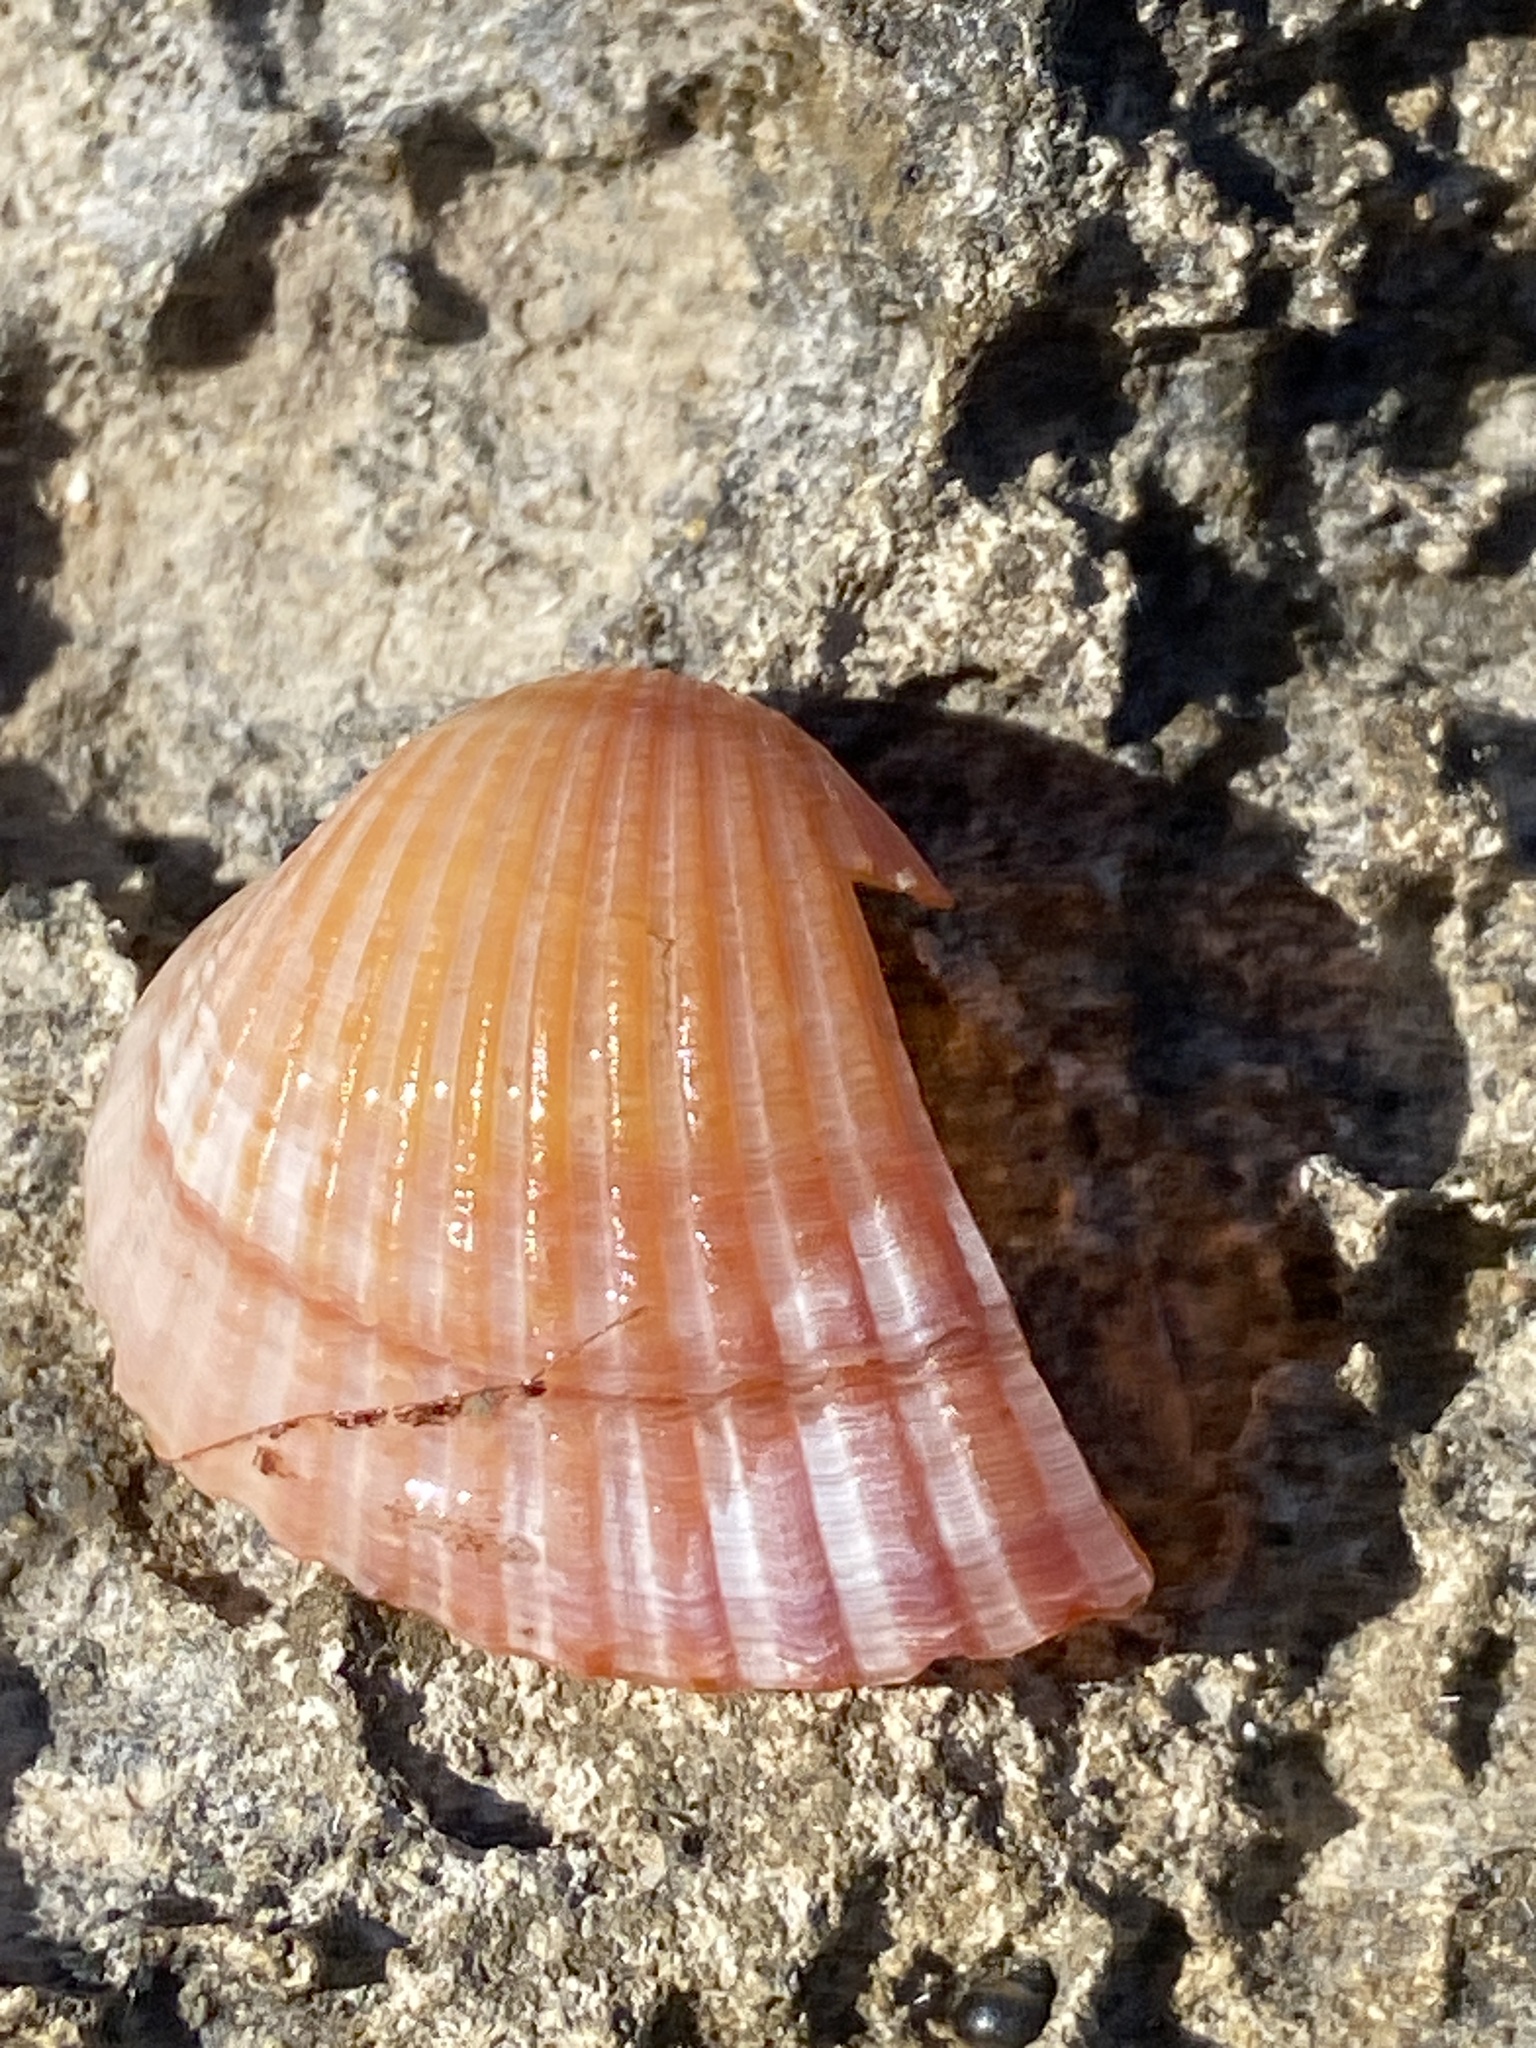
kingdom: Animalia
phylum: Mollusca
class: Bivalvia
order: Cardiida
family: Cardiidae
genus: Cerastoderma
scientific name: Cerastoderma glaucum
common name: Lagoon cockle
